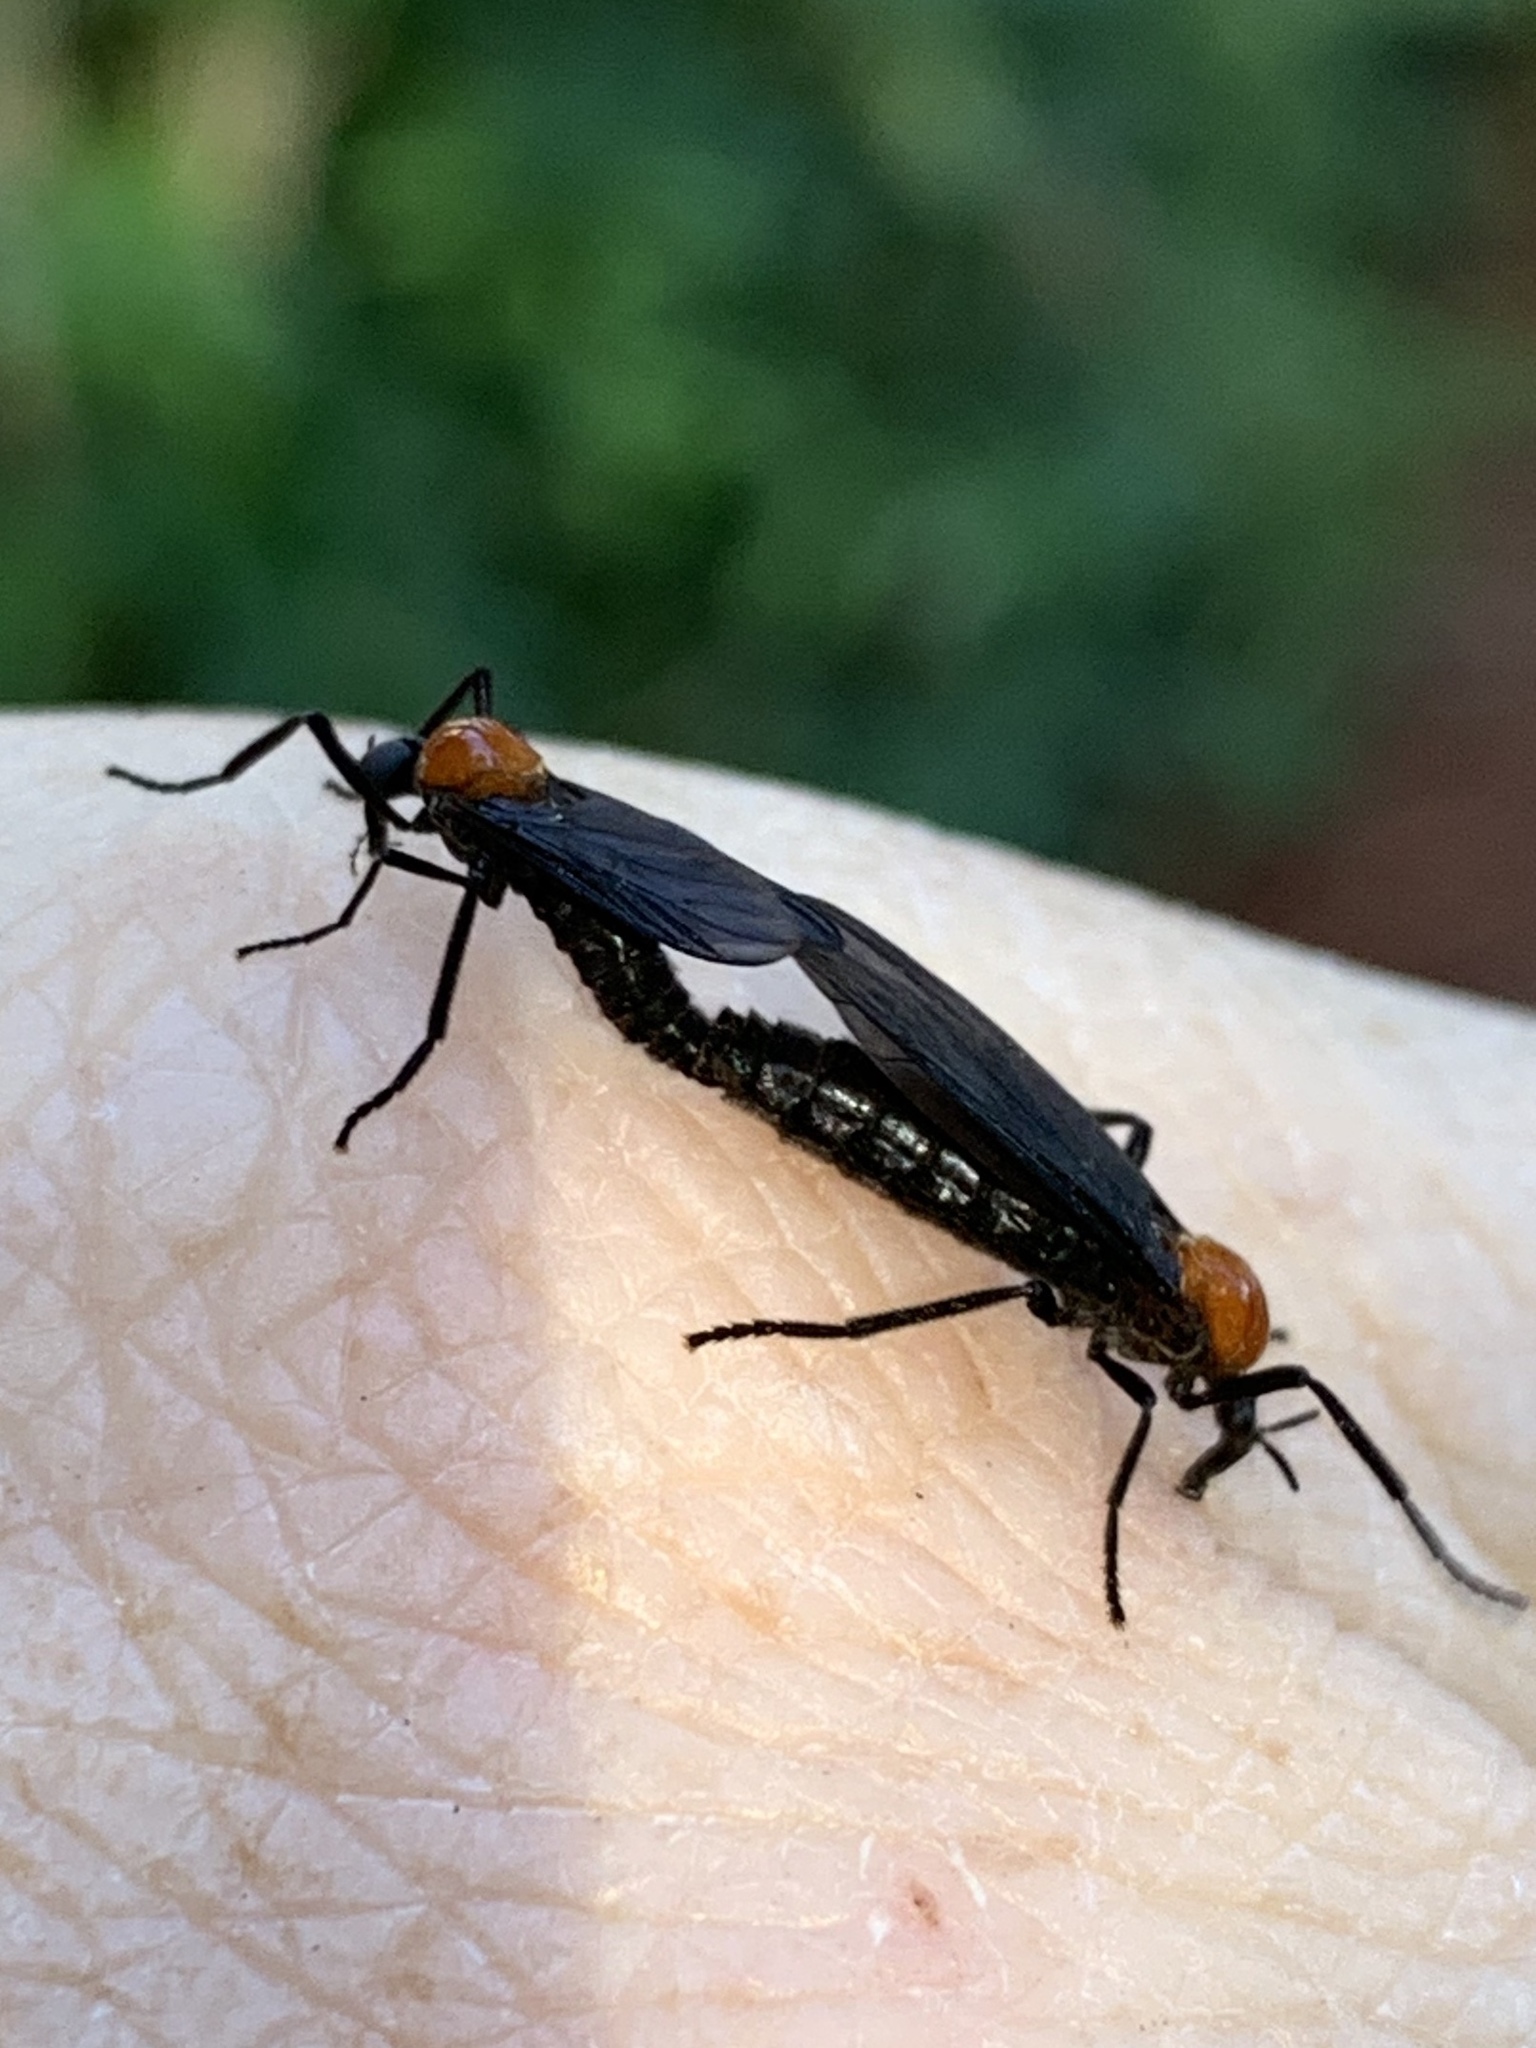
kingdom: Animalia
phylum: Arthropoda
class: Insecta
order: Diptera
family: Bibionidae
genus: Plecia
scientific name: Plecia nearctica
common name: March fly
